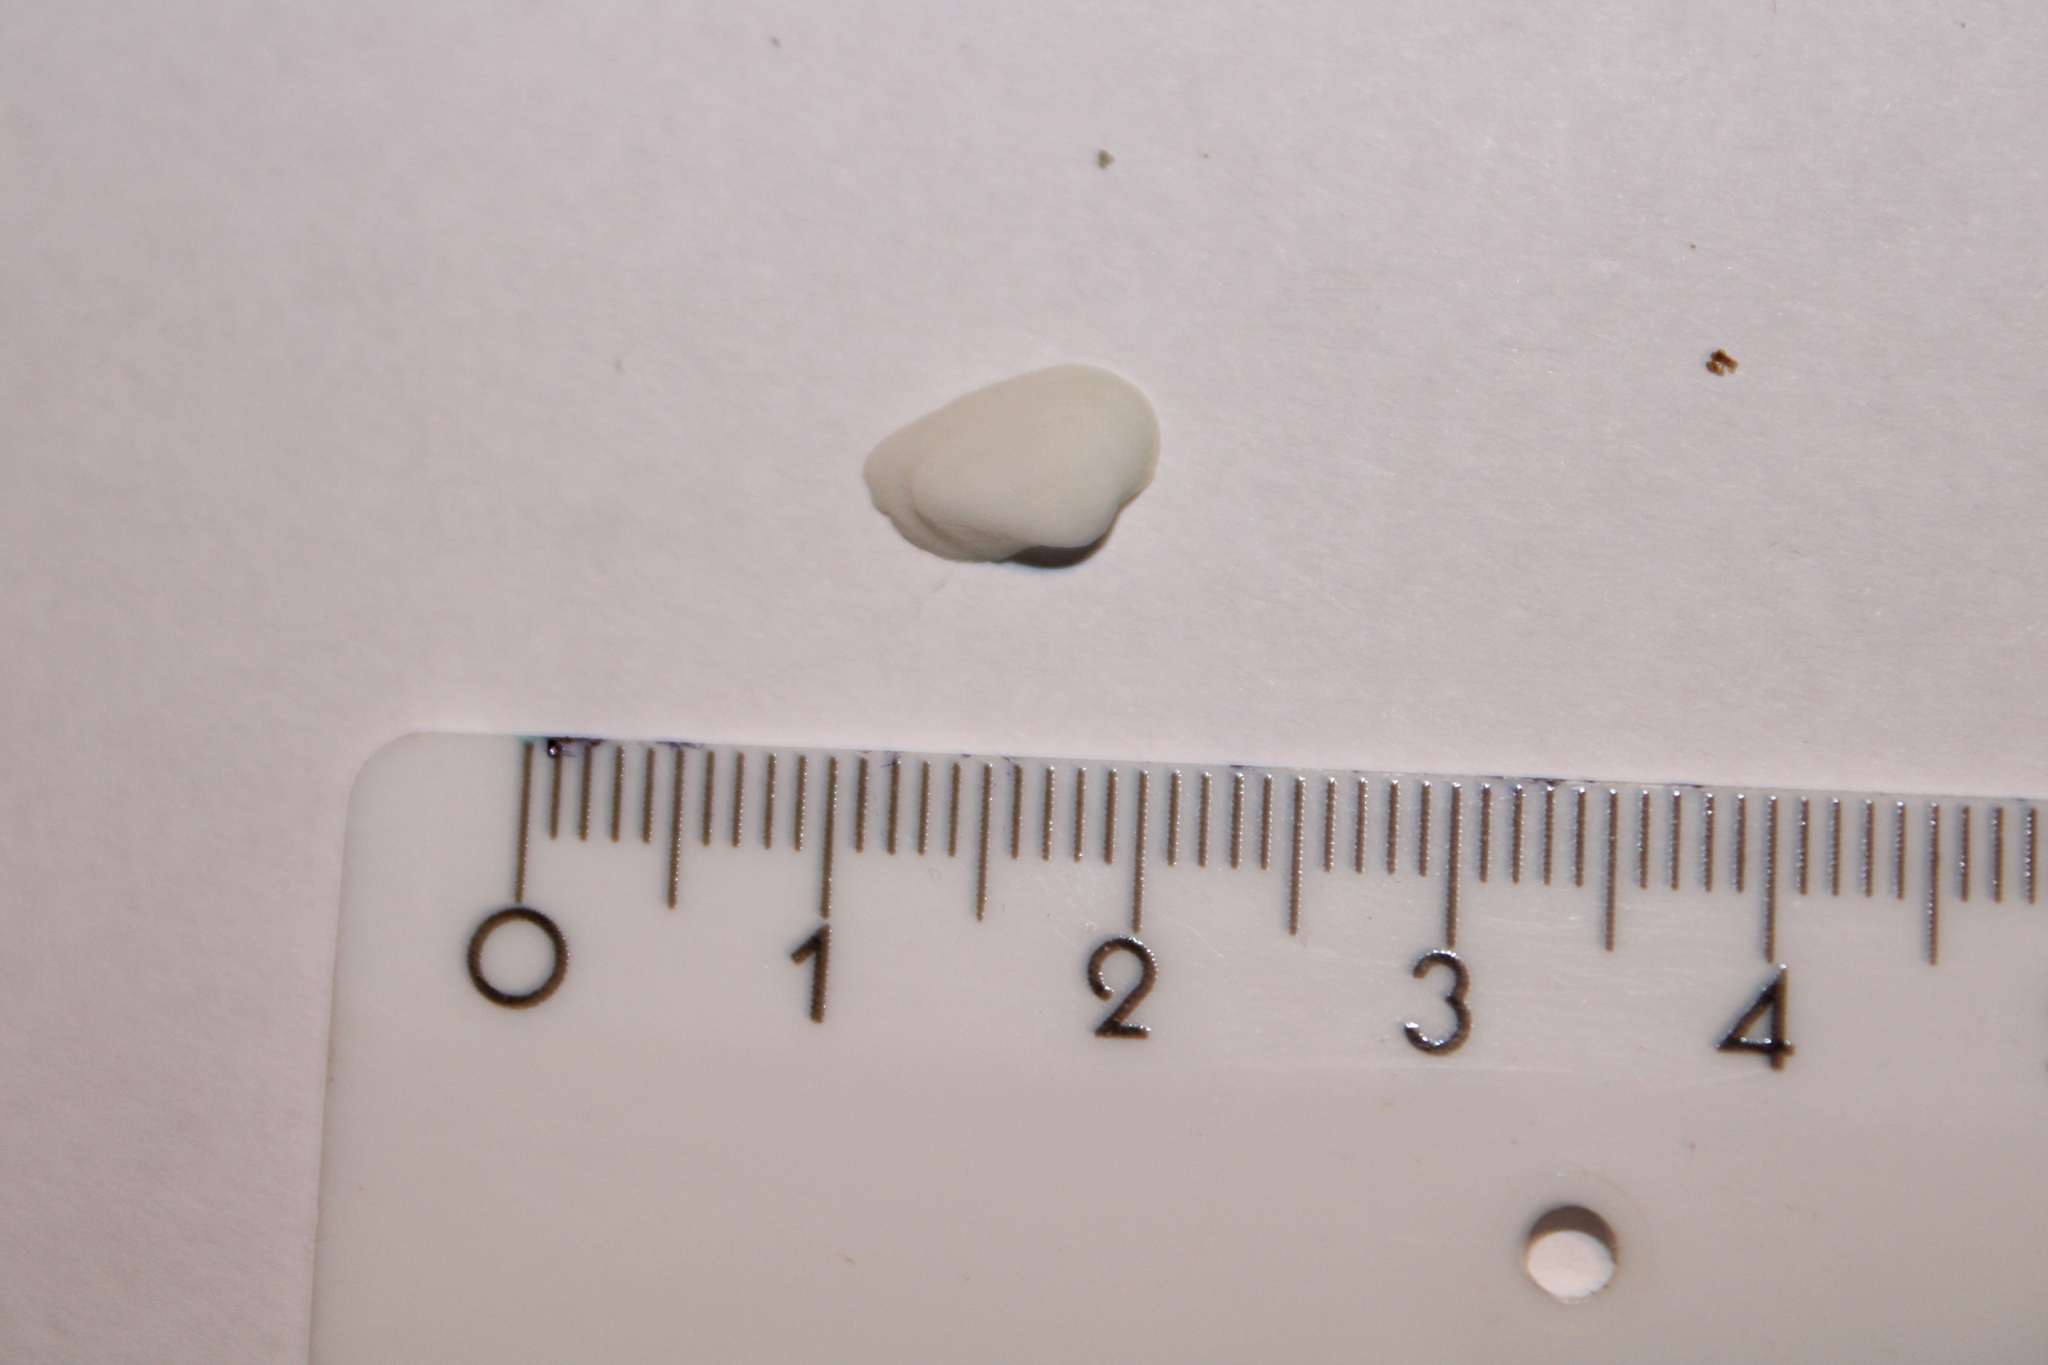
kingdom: Animalia
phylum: Mollusca
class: Bivalvia
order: Arcida
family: Noetiidae
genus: Striarca
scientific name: Striarca lactea
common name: Milky-white ark
